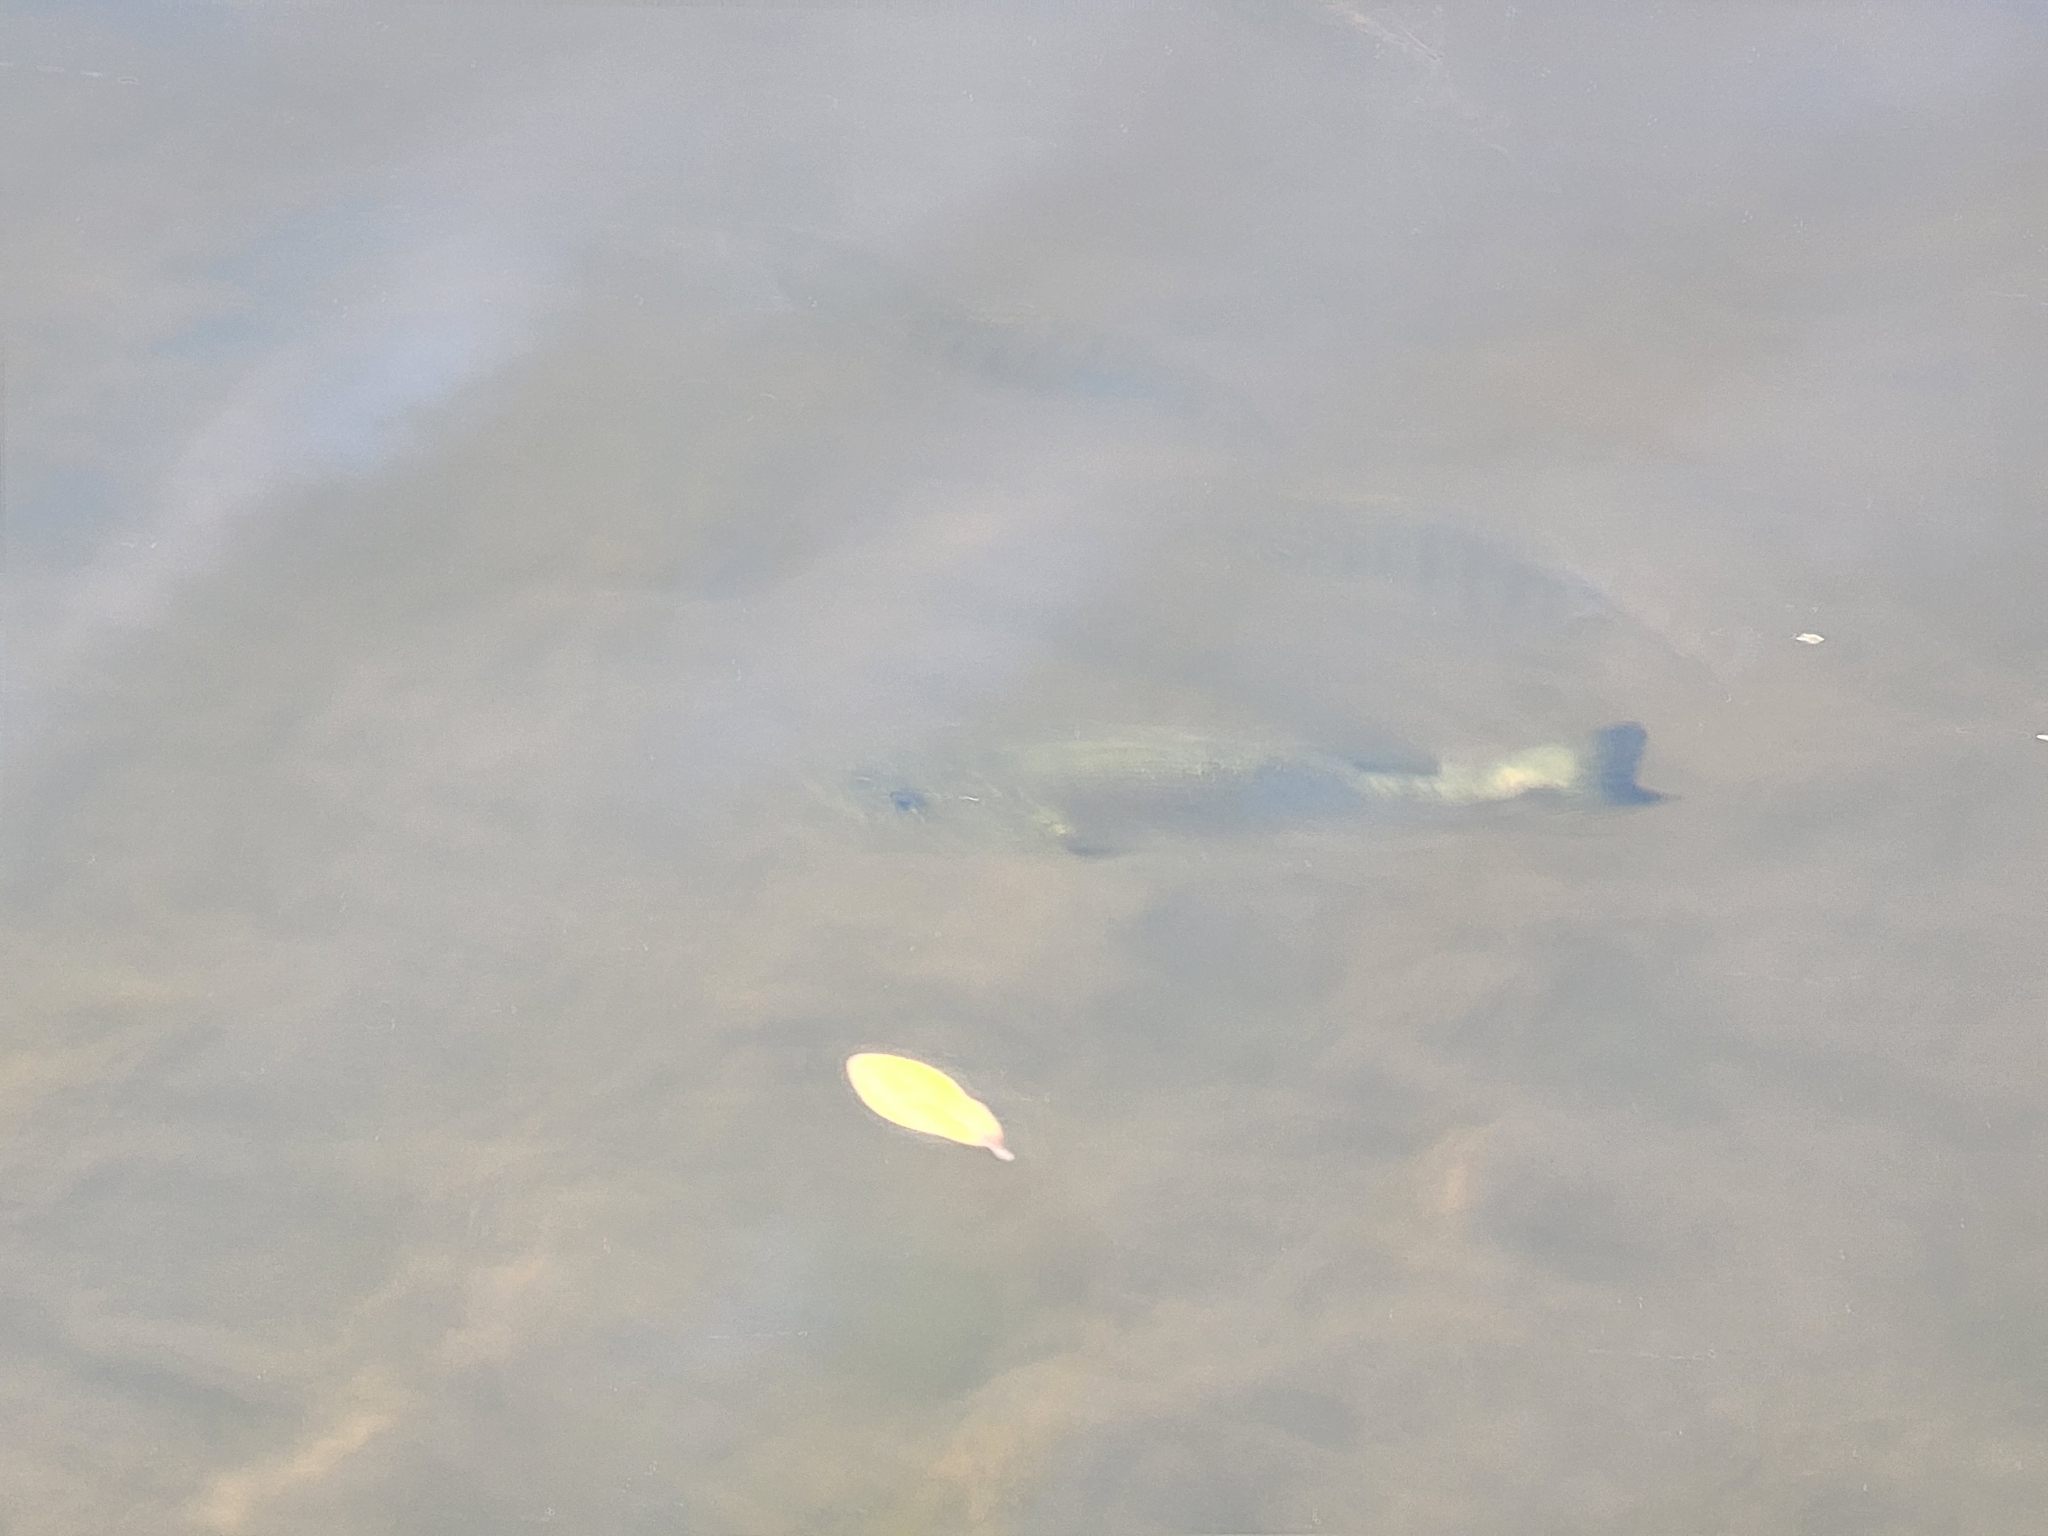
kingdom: Animalia
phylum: Chordata
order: Perciformes
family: Centrarchidae
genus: Micropterus
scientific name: Micropterus salmoides
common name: Largemouth bass
